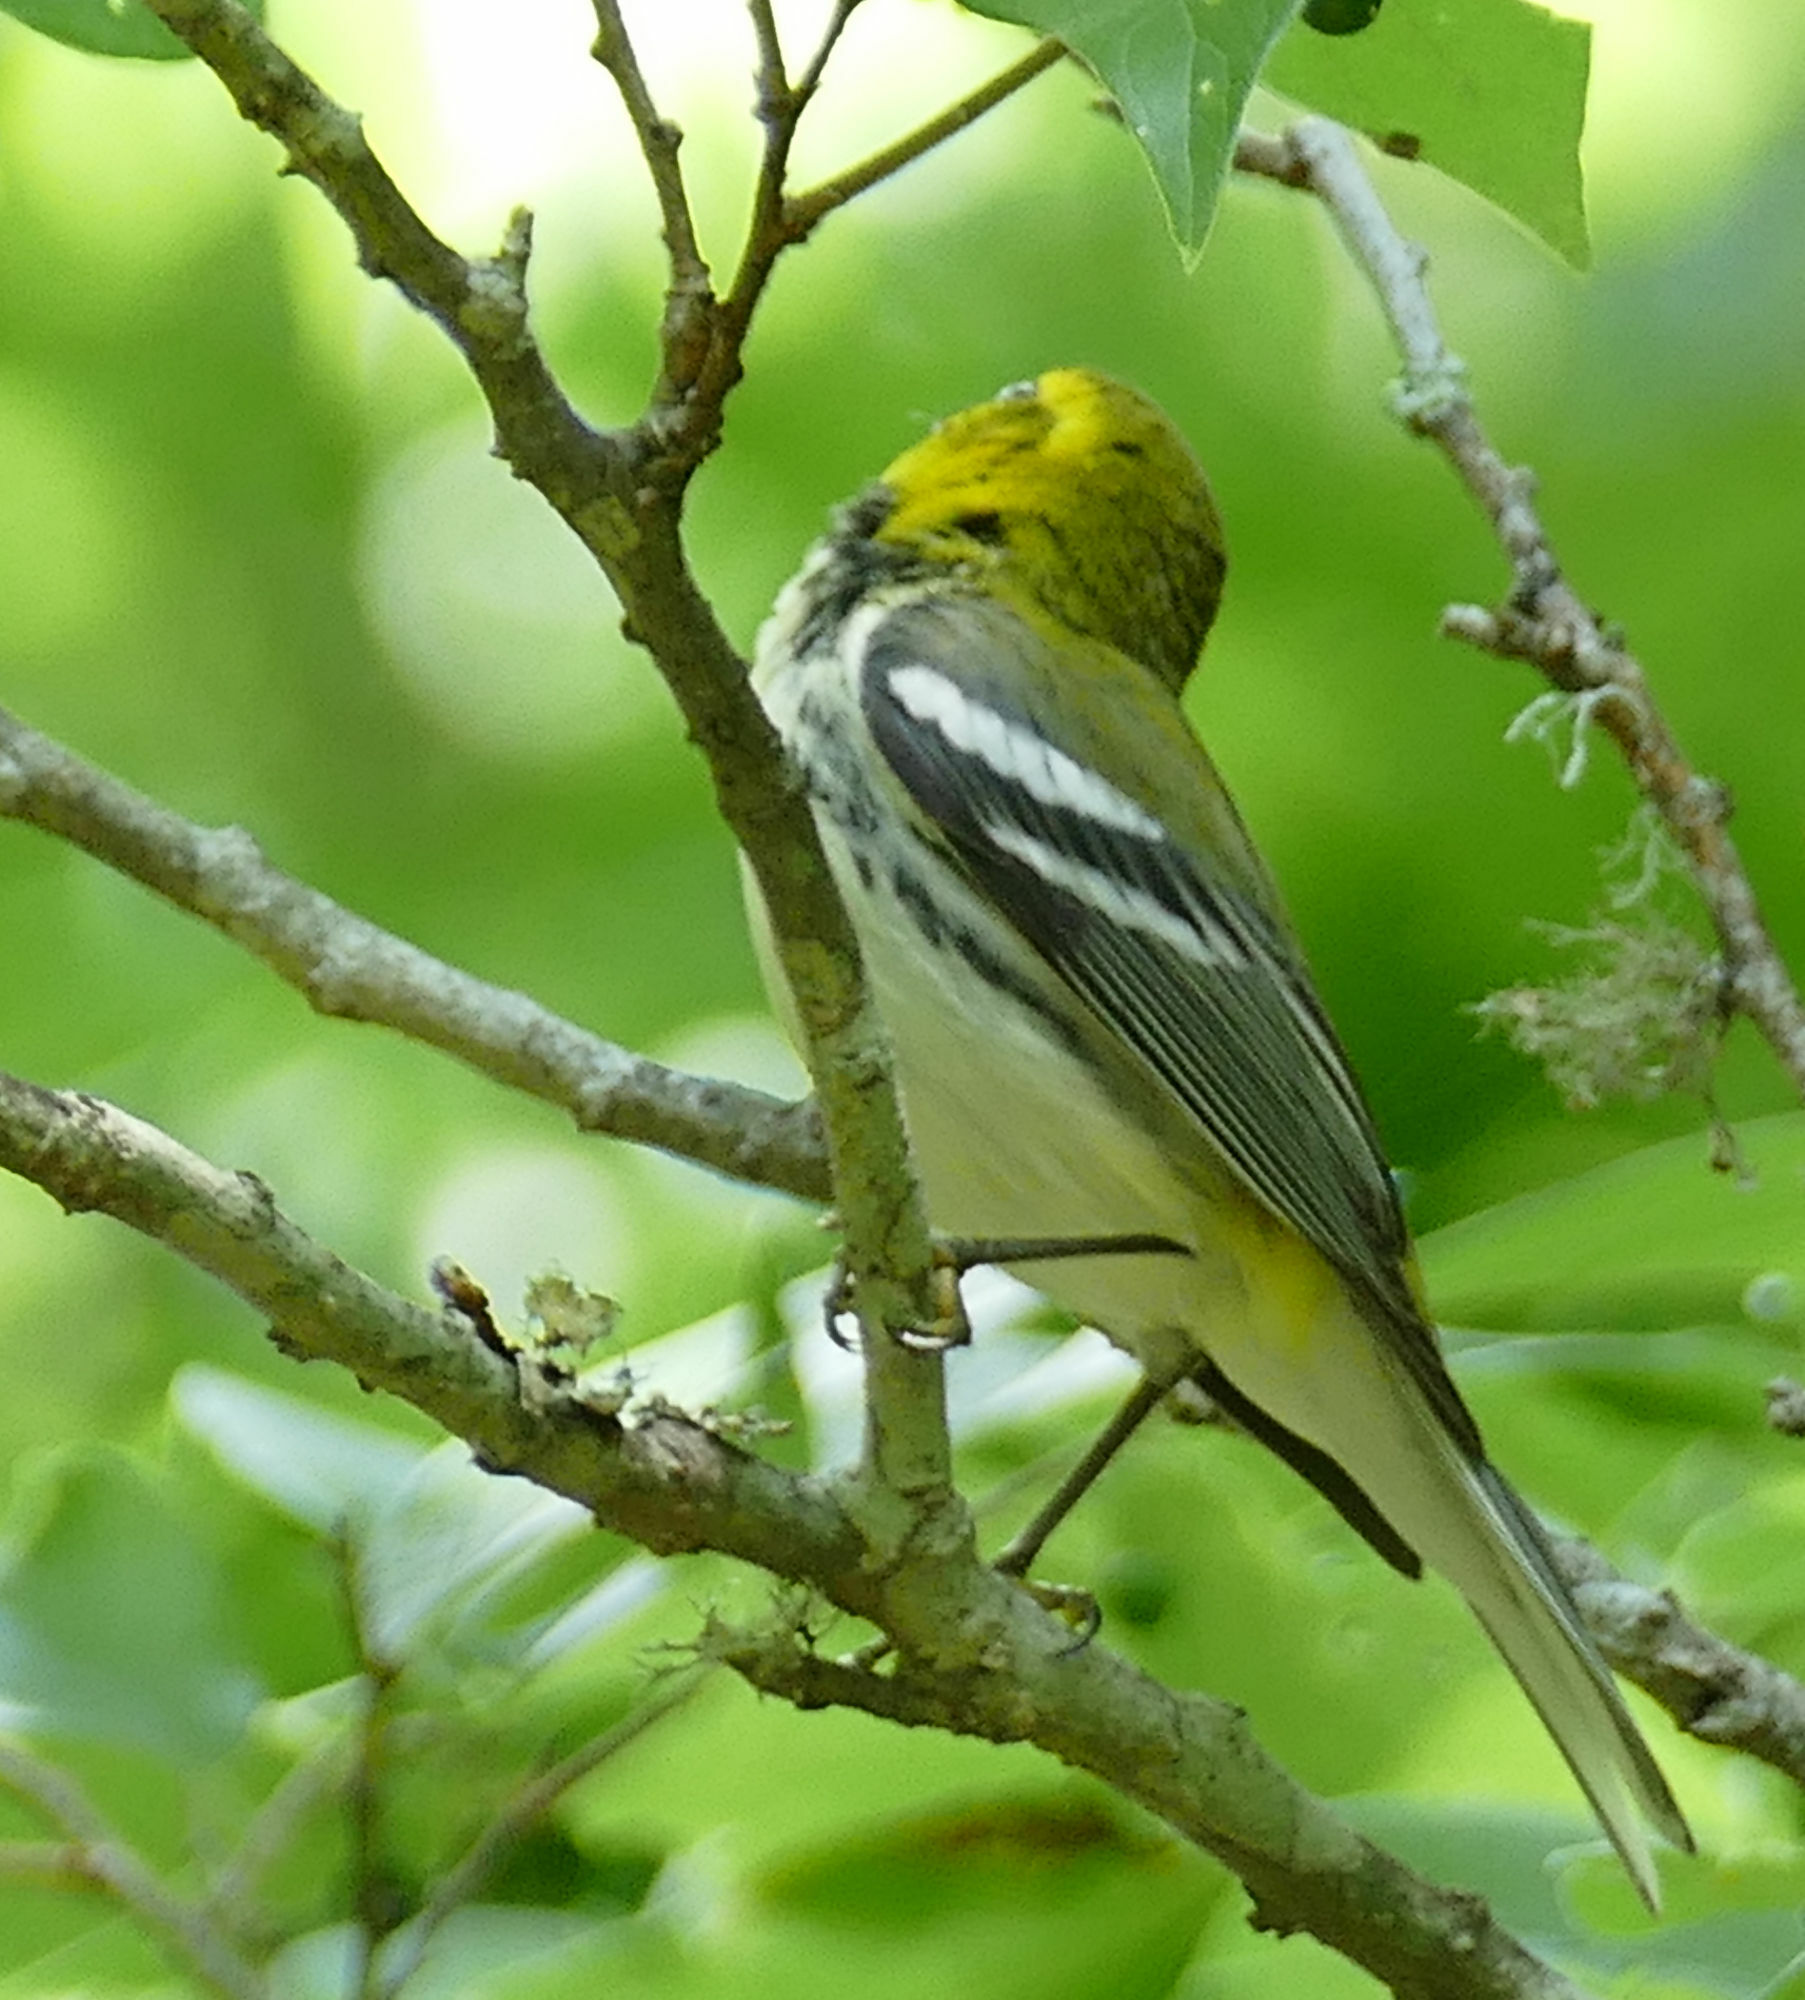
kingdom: Animalia
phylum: Chordata
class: Aves
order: Passeriformes
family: Parulidae
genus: Setophaga
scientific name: Setophaga virens
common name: Black-throated green warbler
